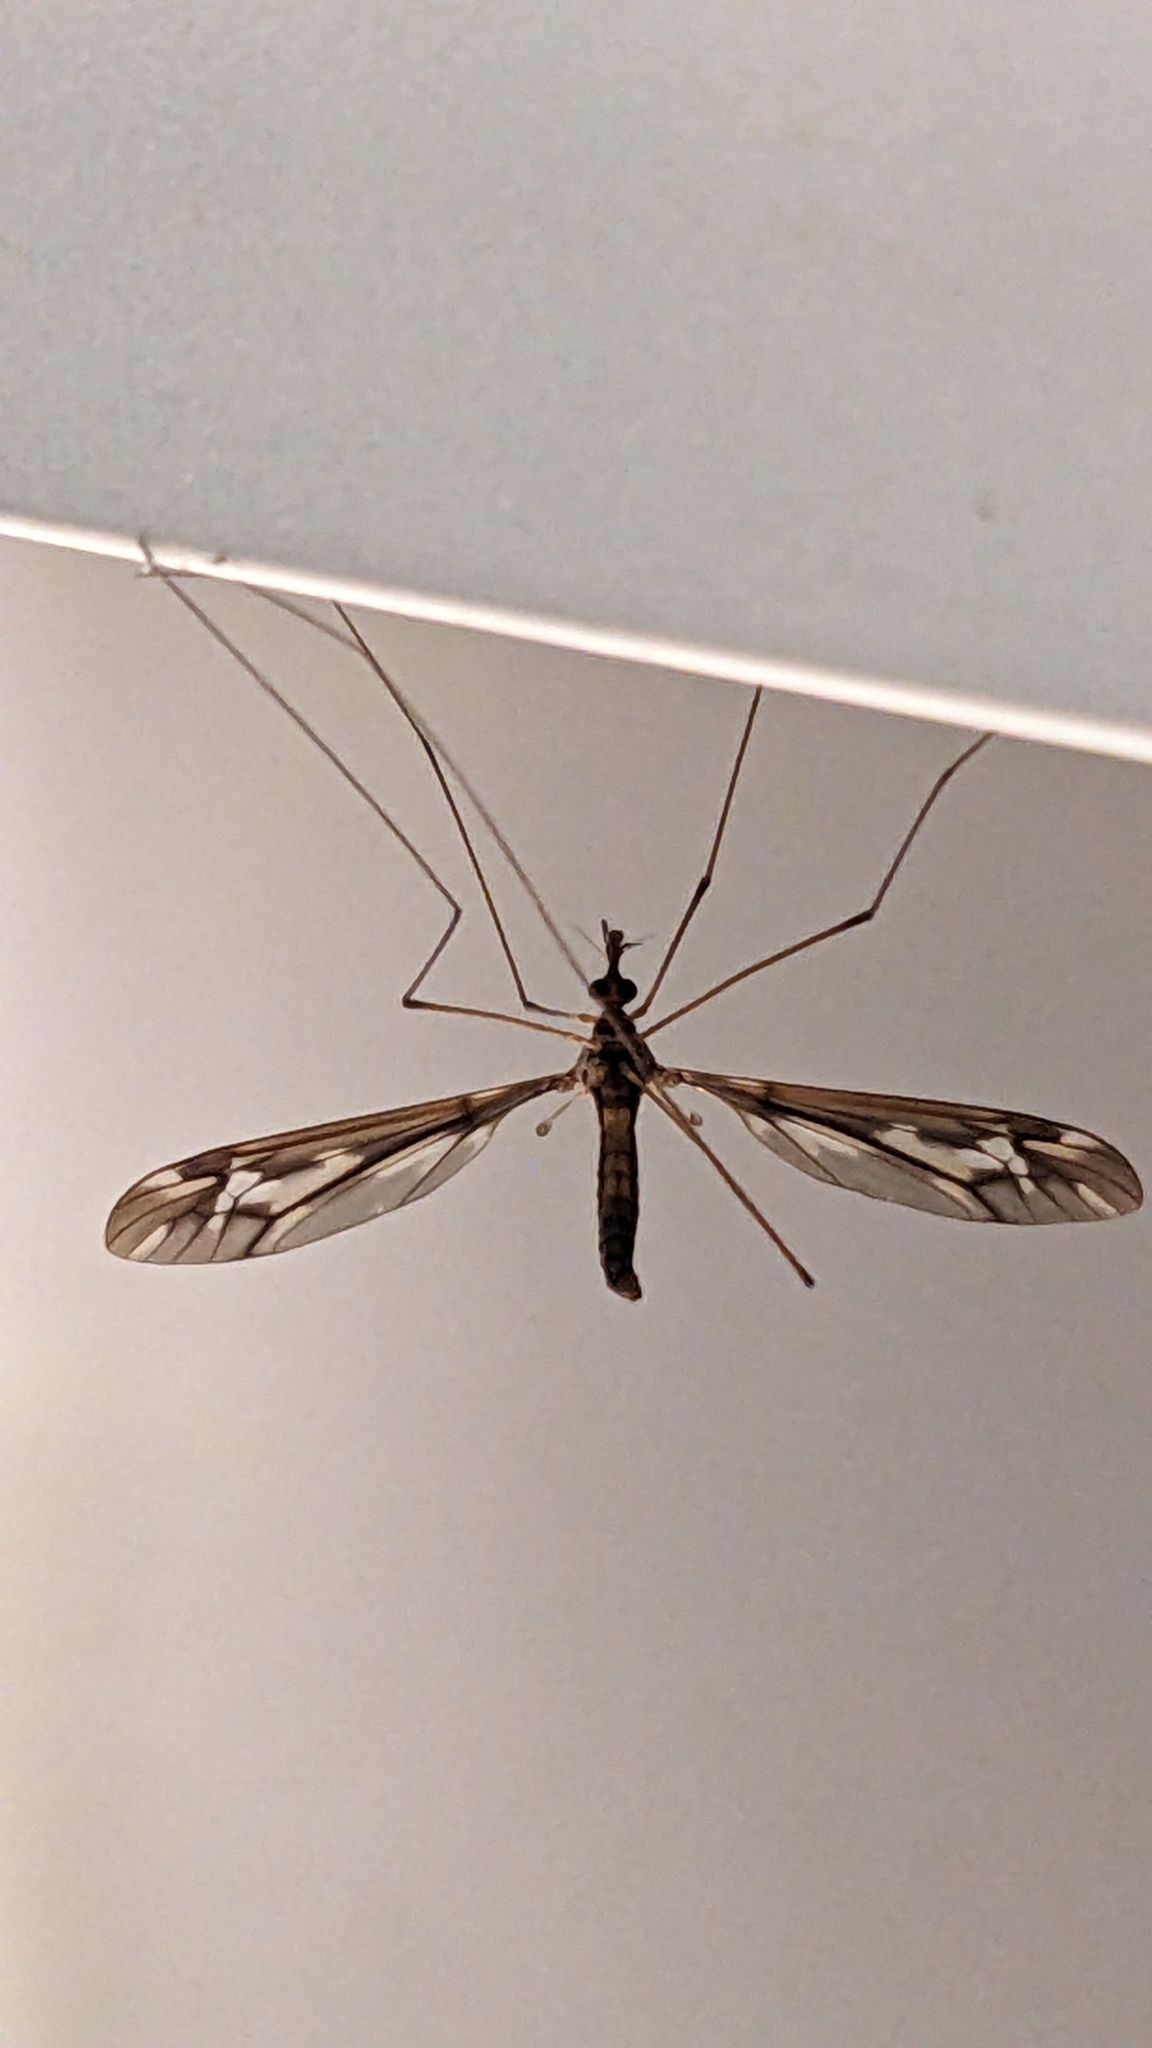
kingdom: Animalia
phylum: Arthropoda
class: Insecta
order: Diptera
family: Tipulidae
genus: Leptotarsus
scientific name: Leptotarsus huttoni
